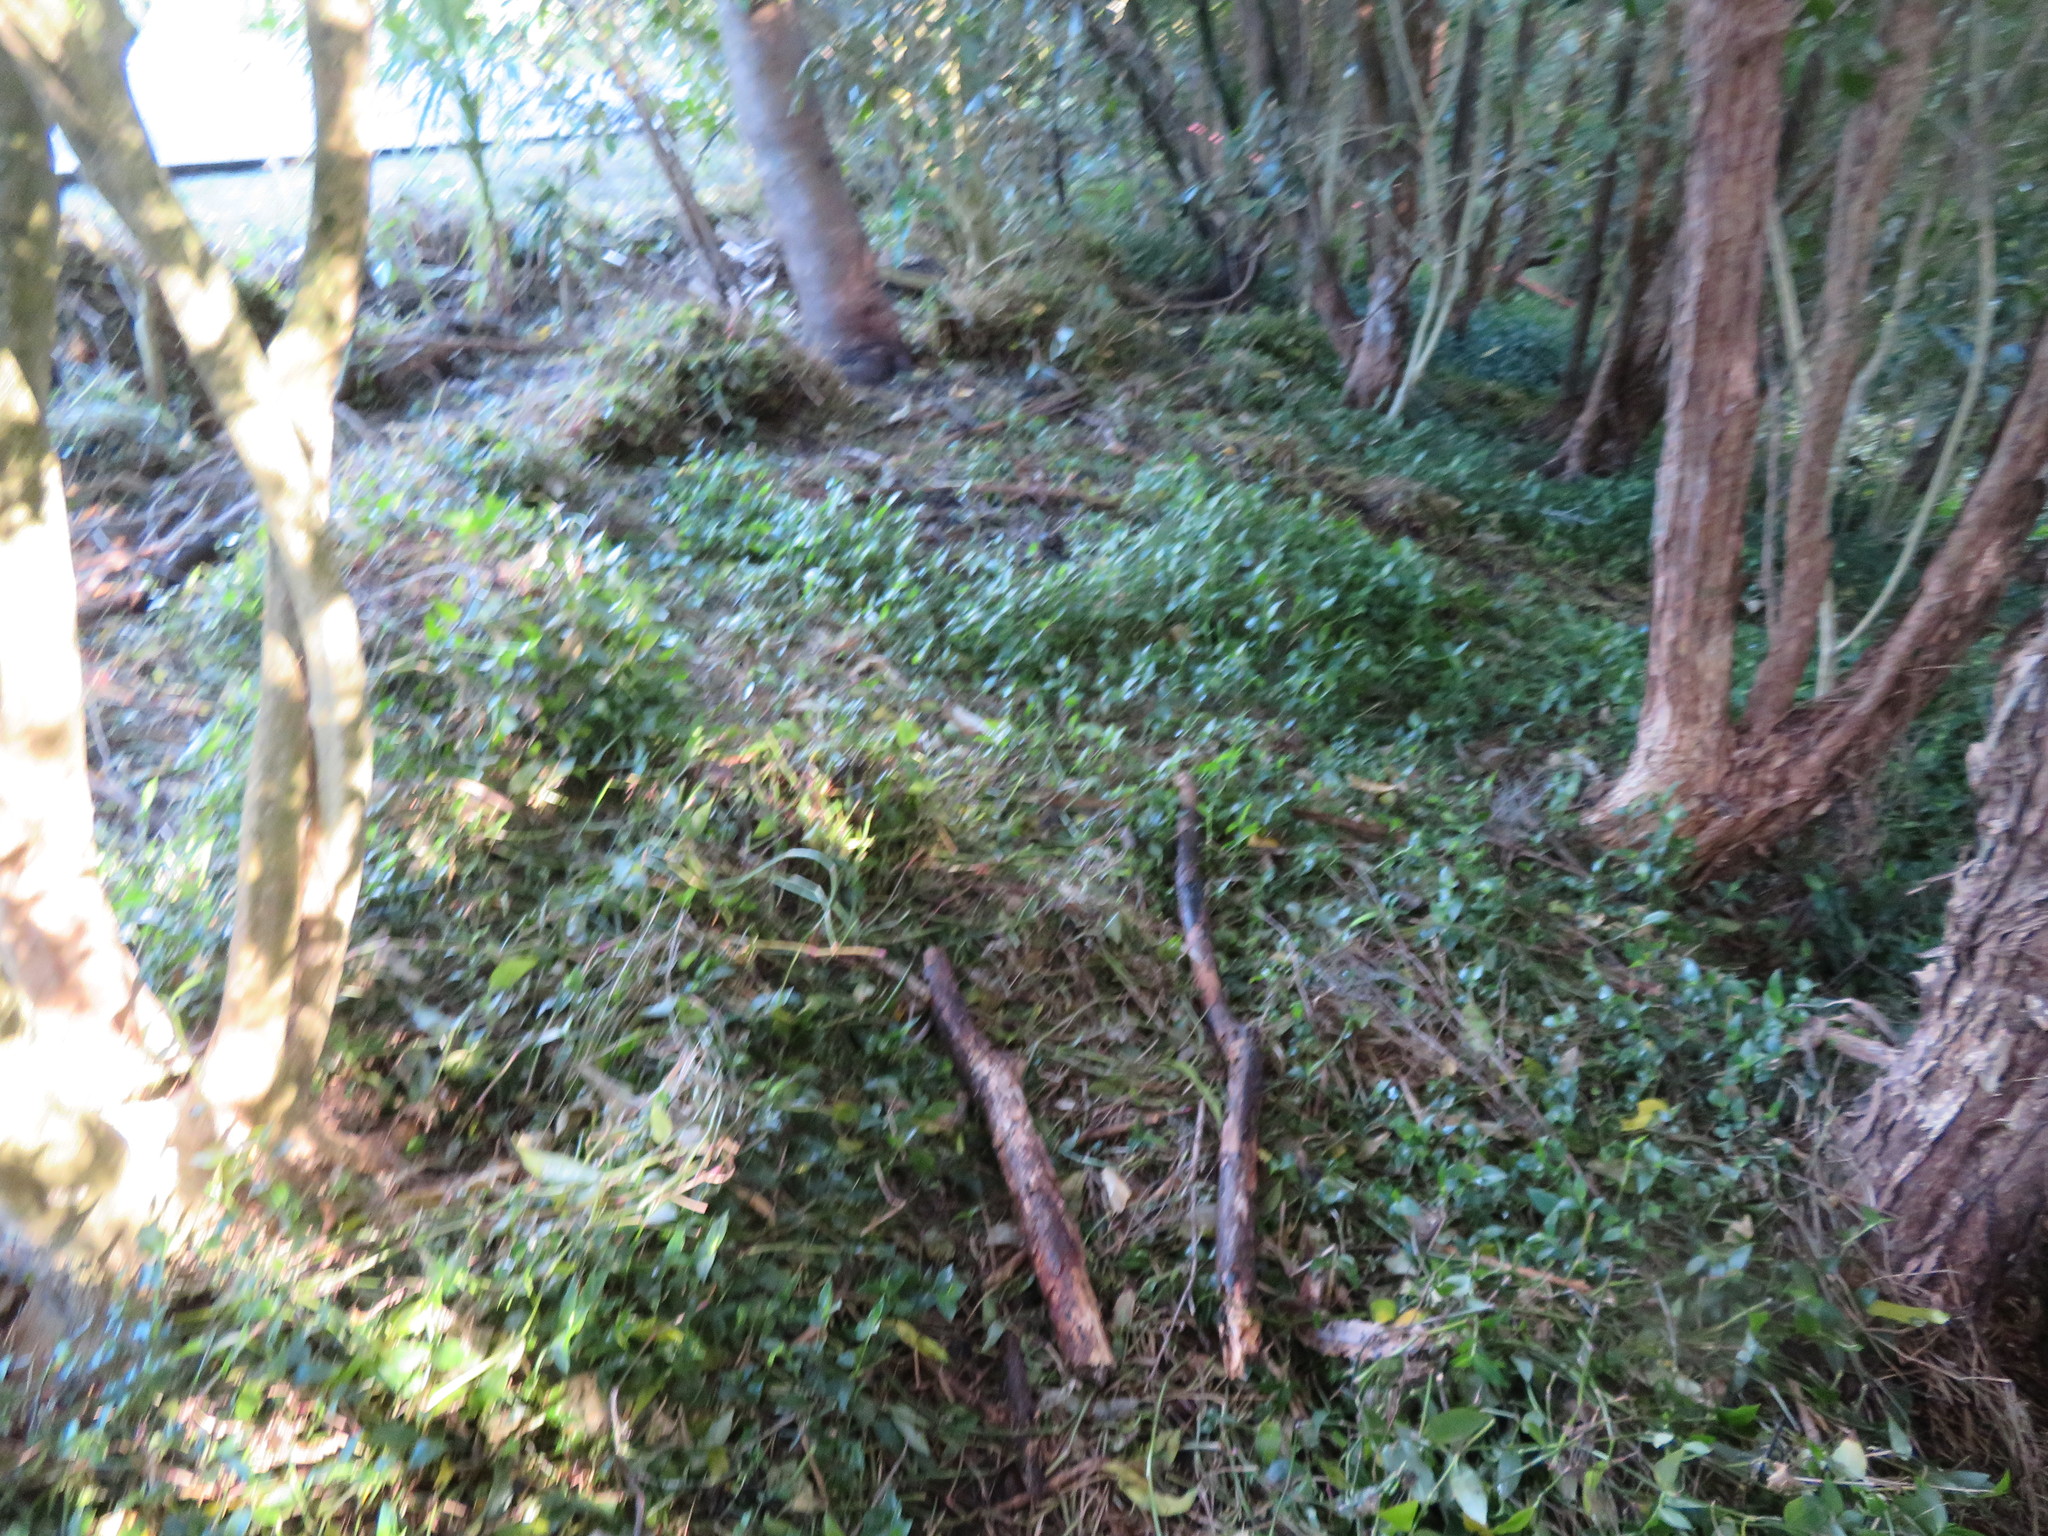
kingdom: Plantae
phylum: Tracheophyta
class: Liliopsida
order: Commelinales
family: Commelinaceae
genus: Tradescantia
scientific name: Tradescantia fluminensis
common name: Wandering-jew
